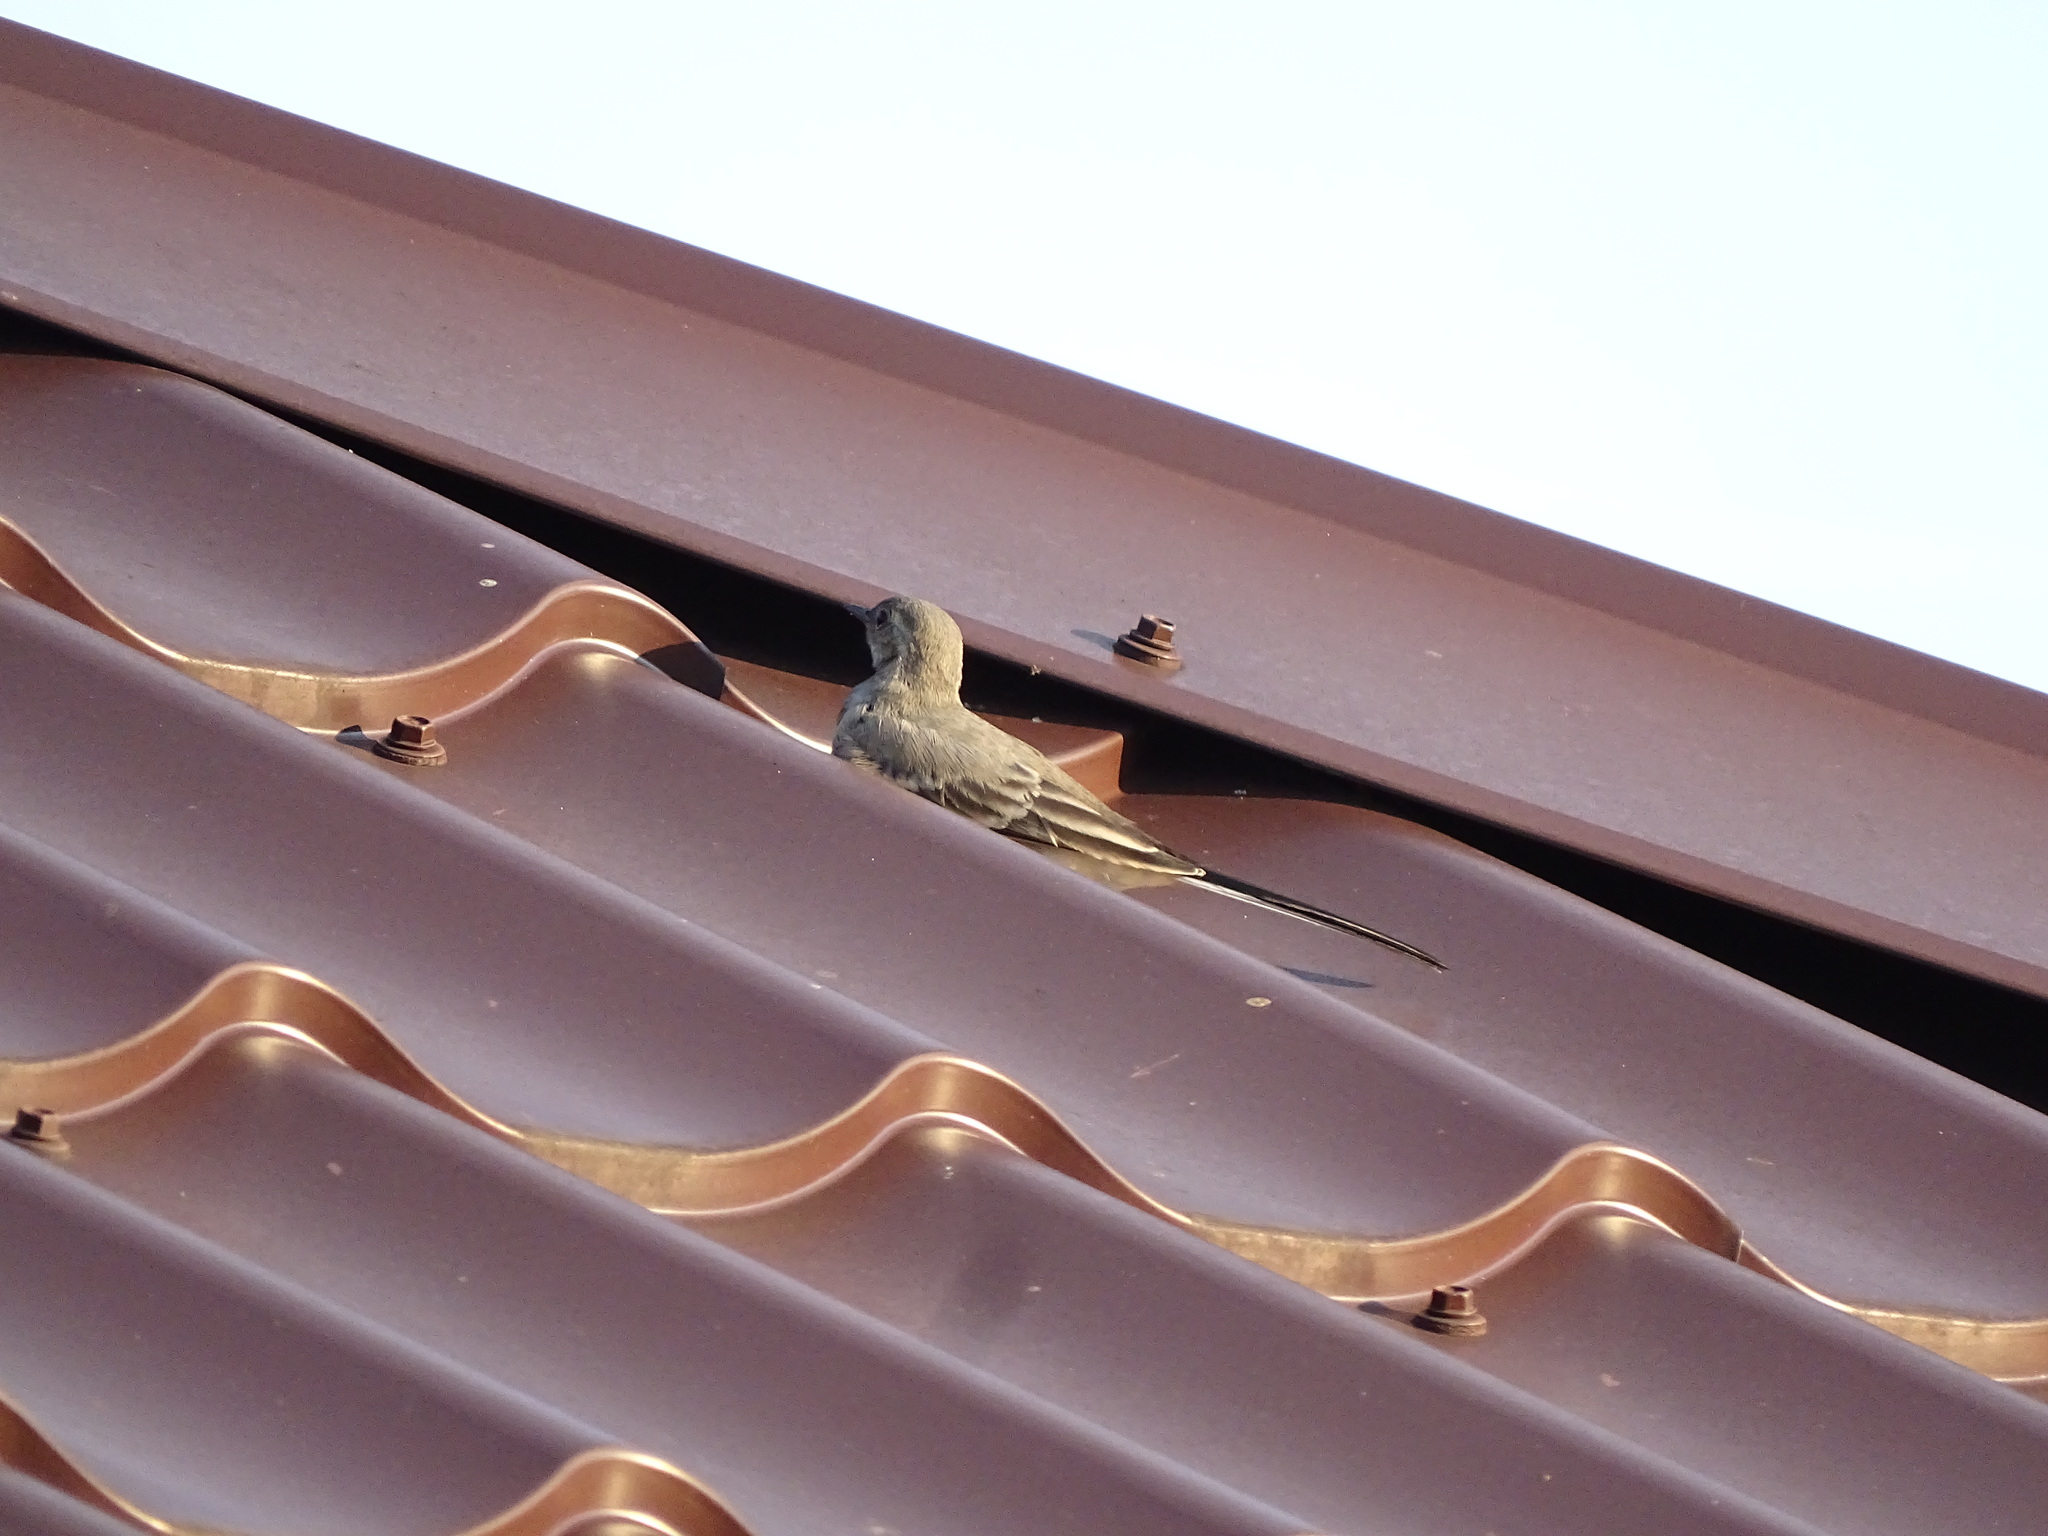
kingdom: Animalia
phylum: Chordata
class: Aves
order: Passeriformes
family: Motacillidae
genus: Motacilla
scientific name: Motacilla alba
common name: White wagtail
